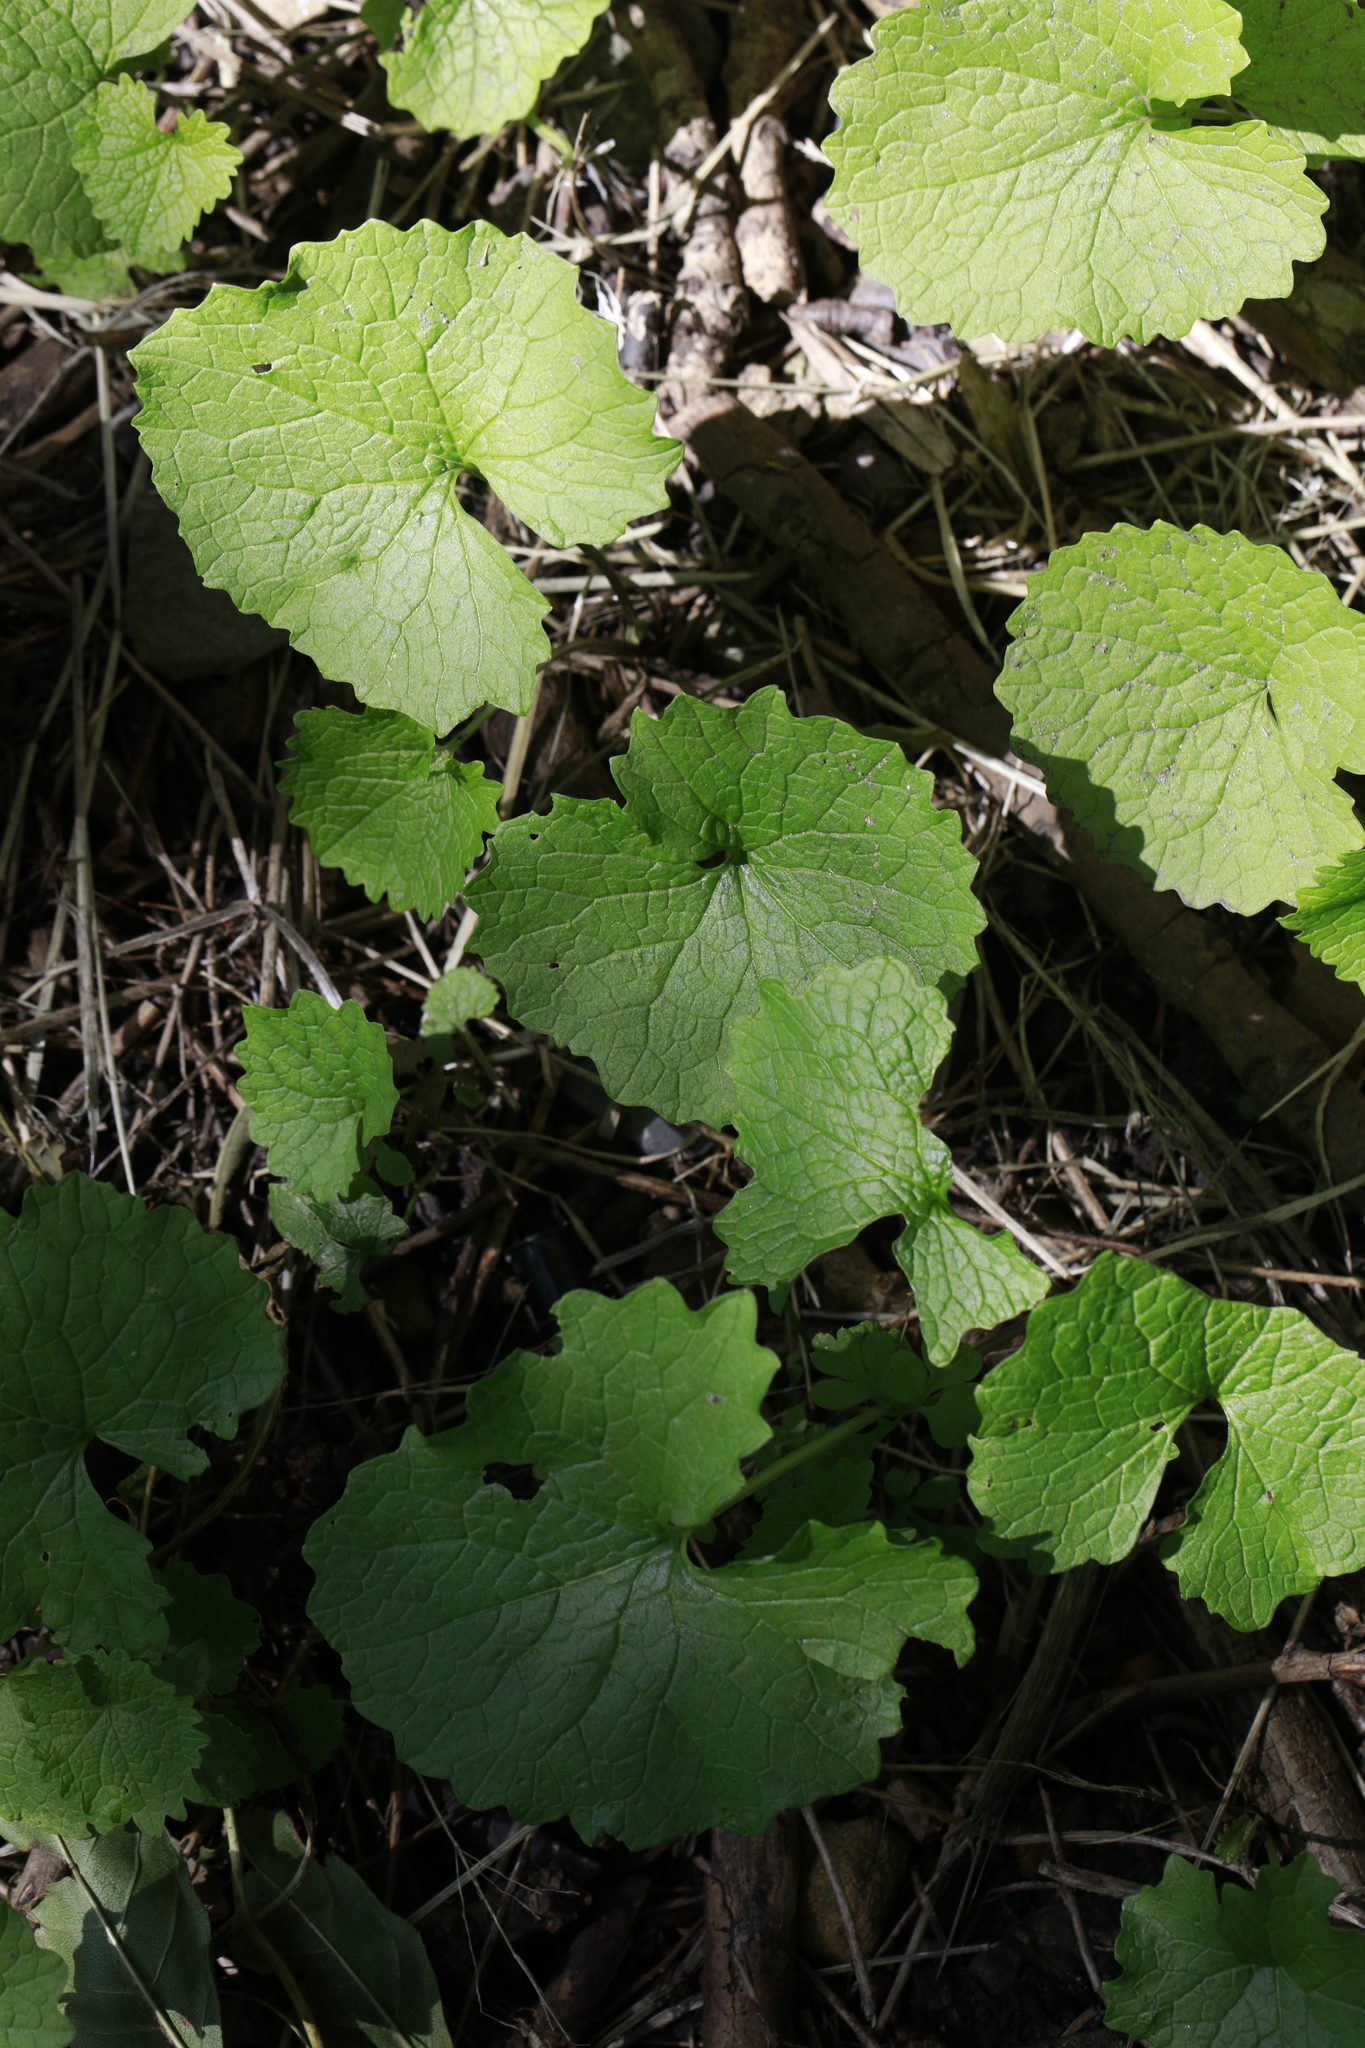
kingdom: Plantae
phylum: Tracheophyta
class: Magnoliopsida
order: Brassicales
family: Brassicaceae
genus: Alliaria
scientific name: Alliaria petiolata
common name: Garlic mustard
